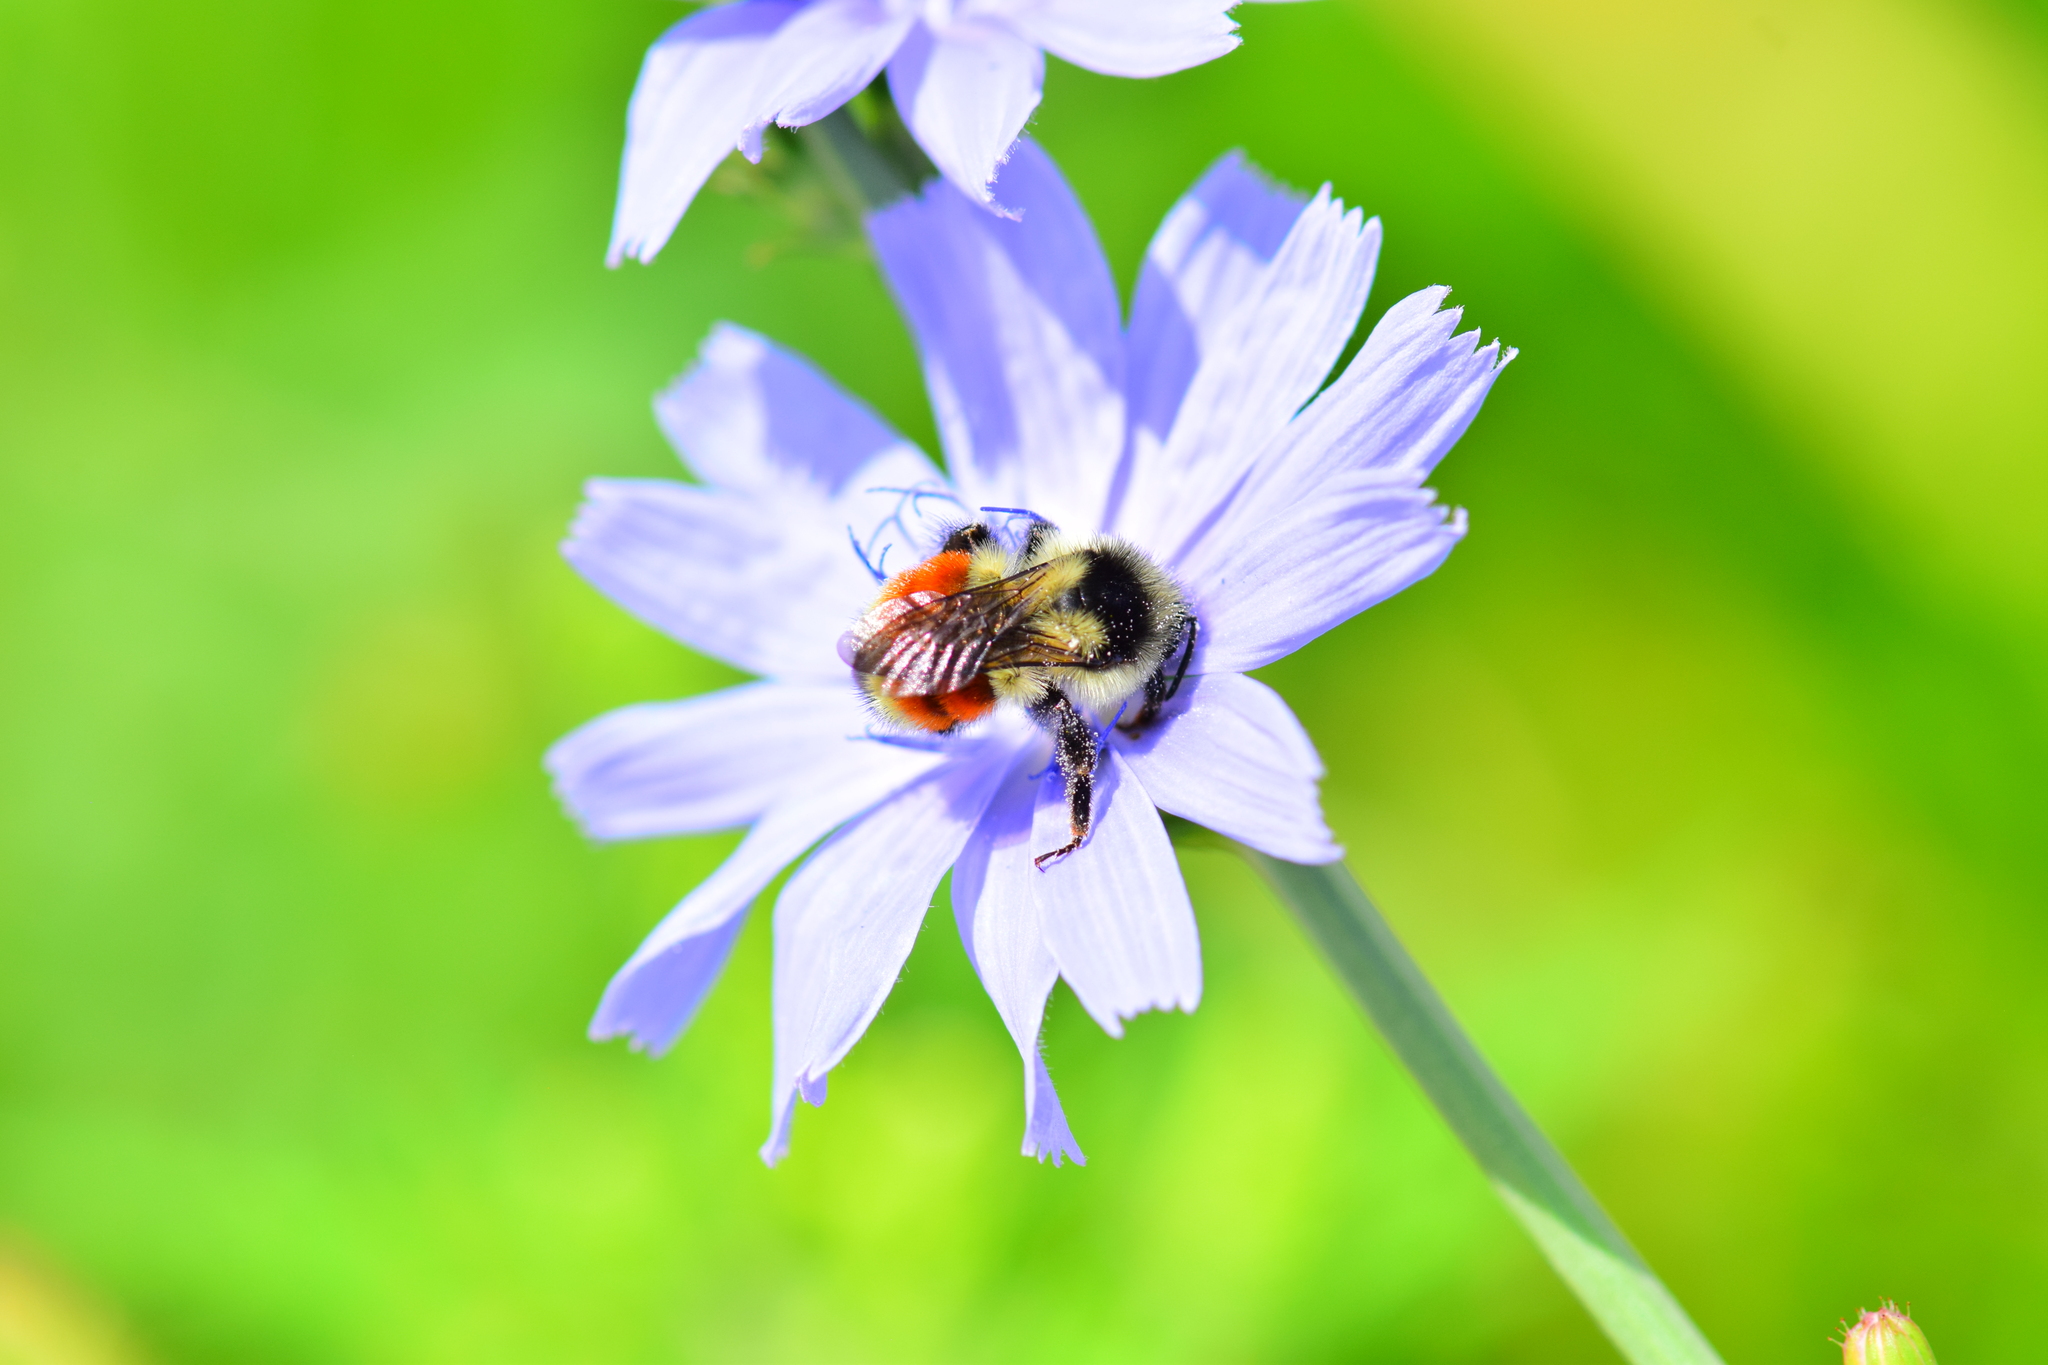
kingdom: Animalia
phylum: Arthropoda
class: Insecta
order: Hymenoptera
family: Apidae
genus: Bombus
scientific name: Bombus ternarius
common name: Tri-colored bumble bee
